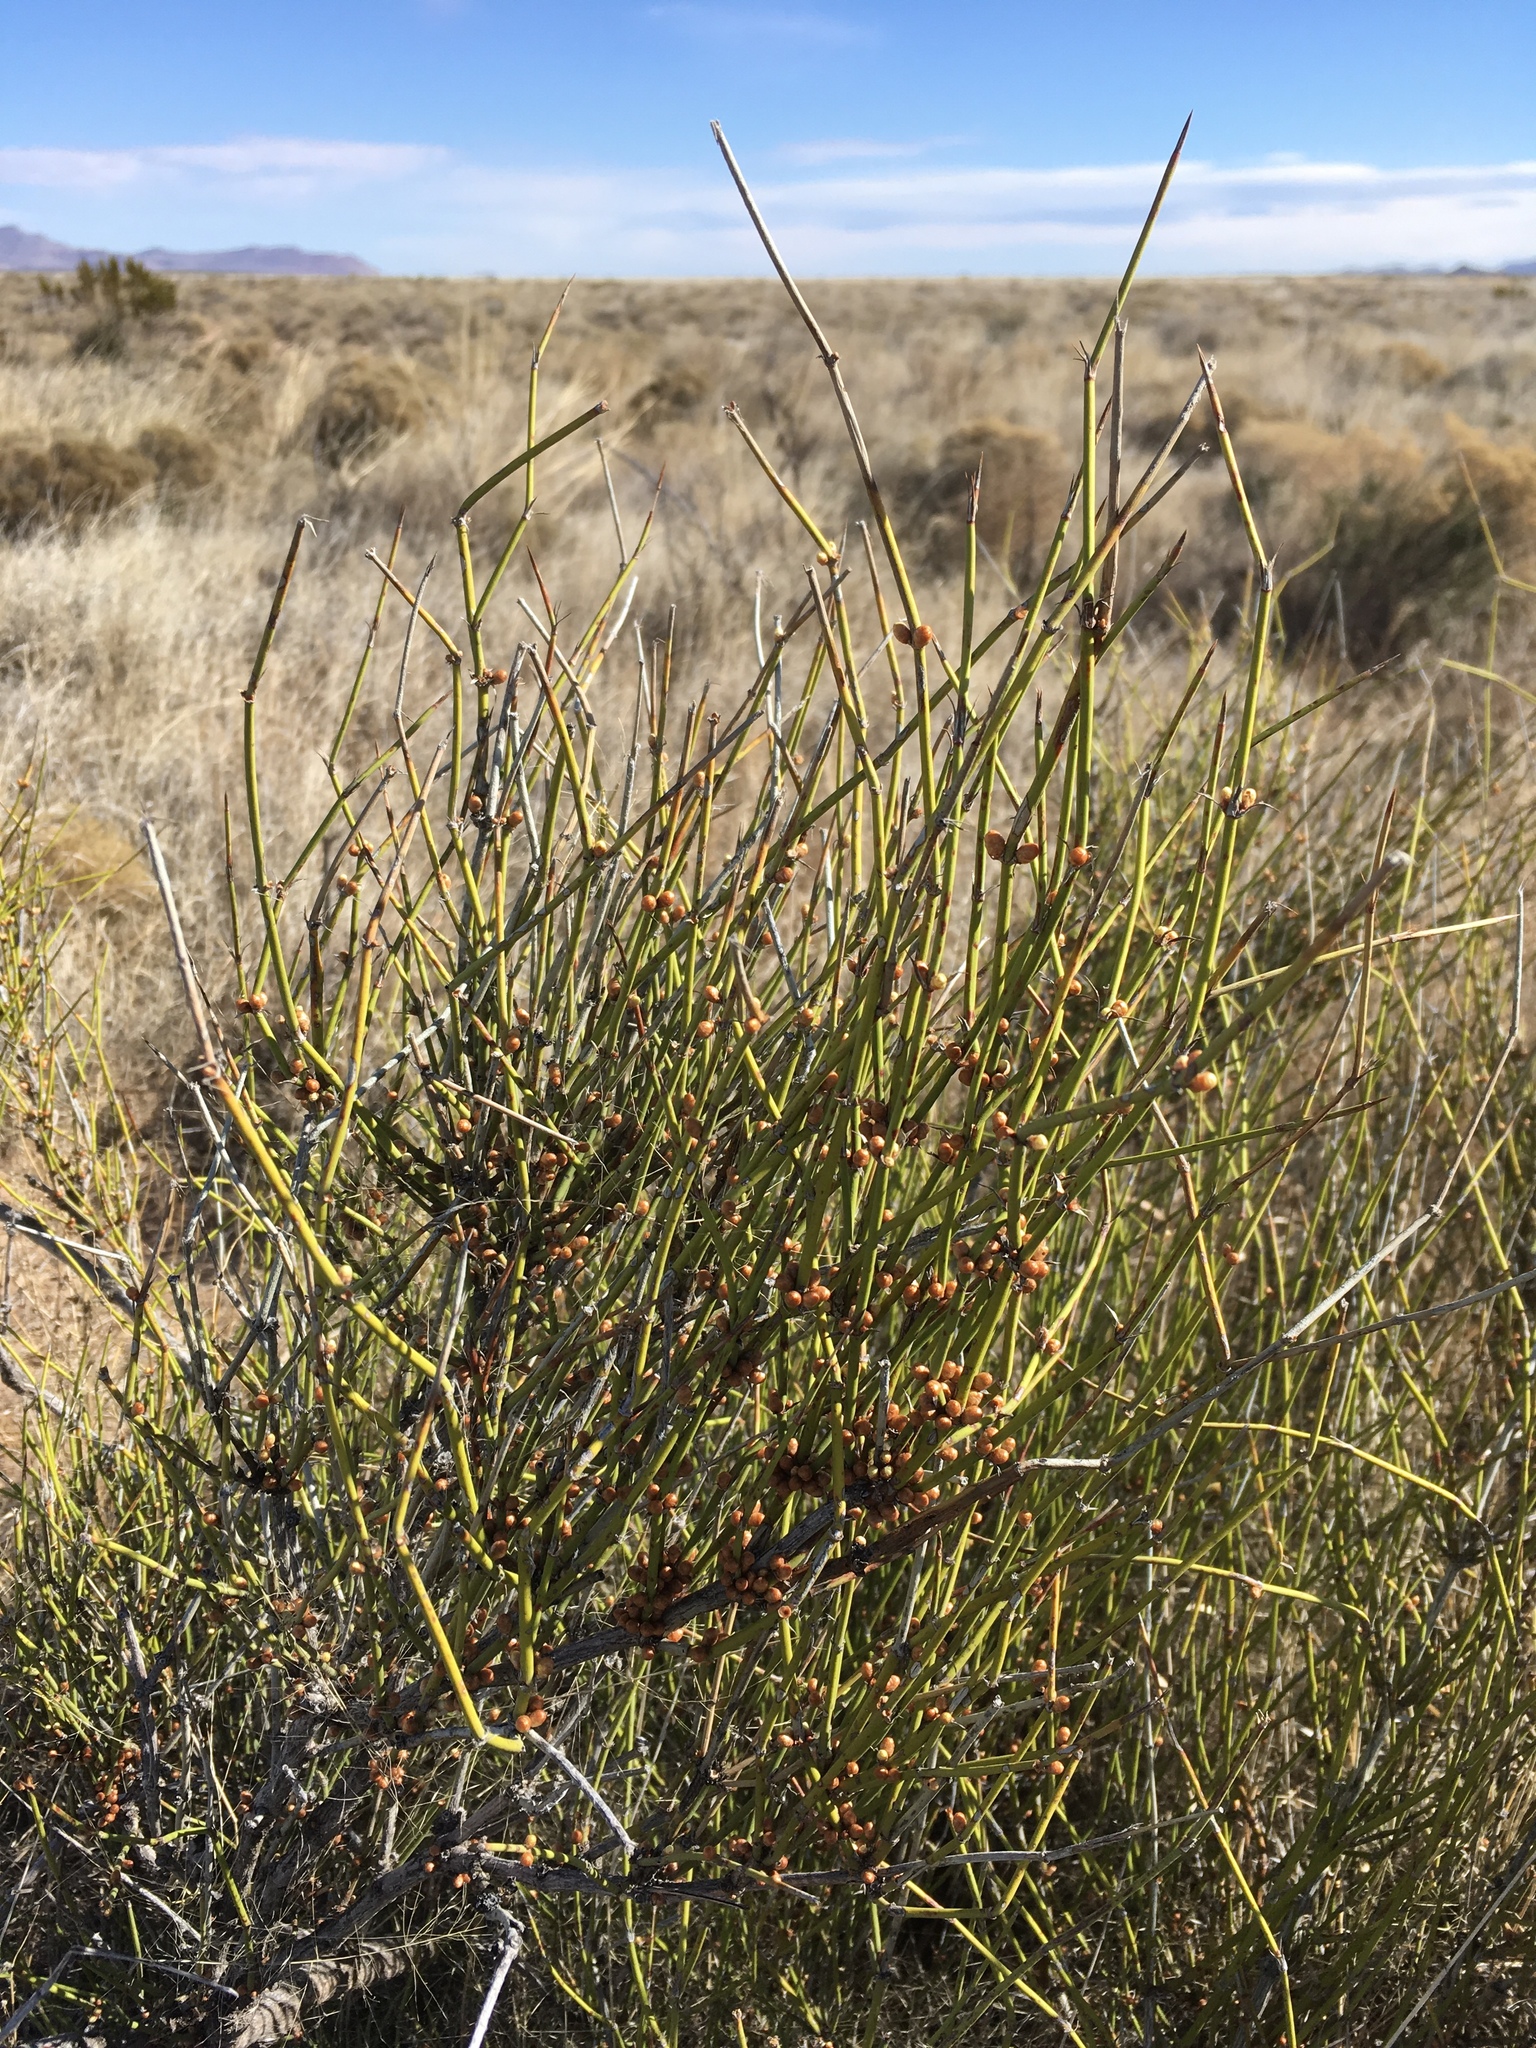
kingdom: Plantae
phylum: Tracheophyta
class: Gnetopsida
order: Ephedrales
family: Ephedraceae
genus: Ephedra
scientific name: Ephedra trifurca
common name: Mexican-tea
